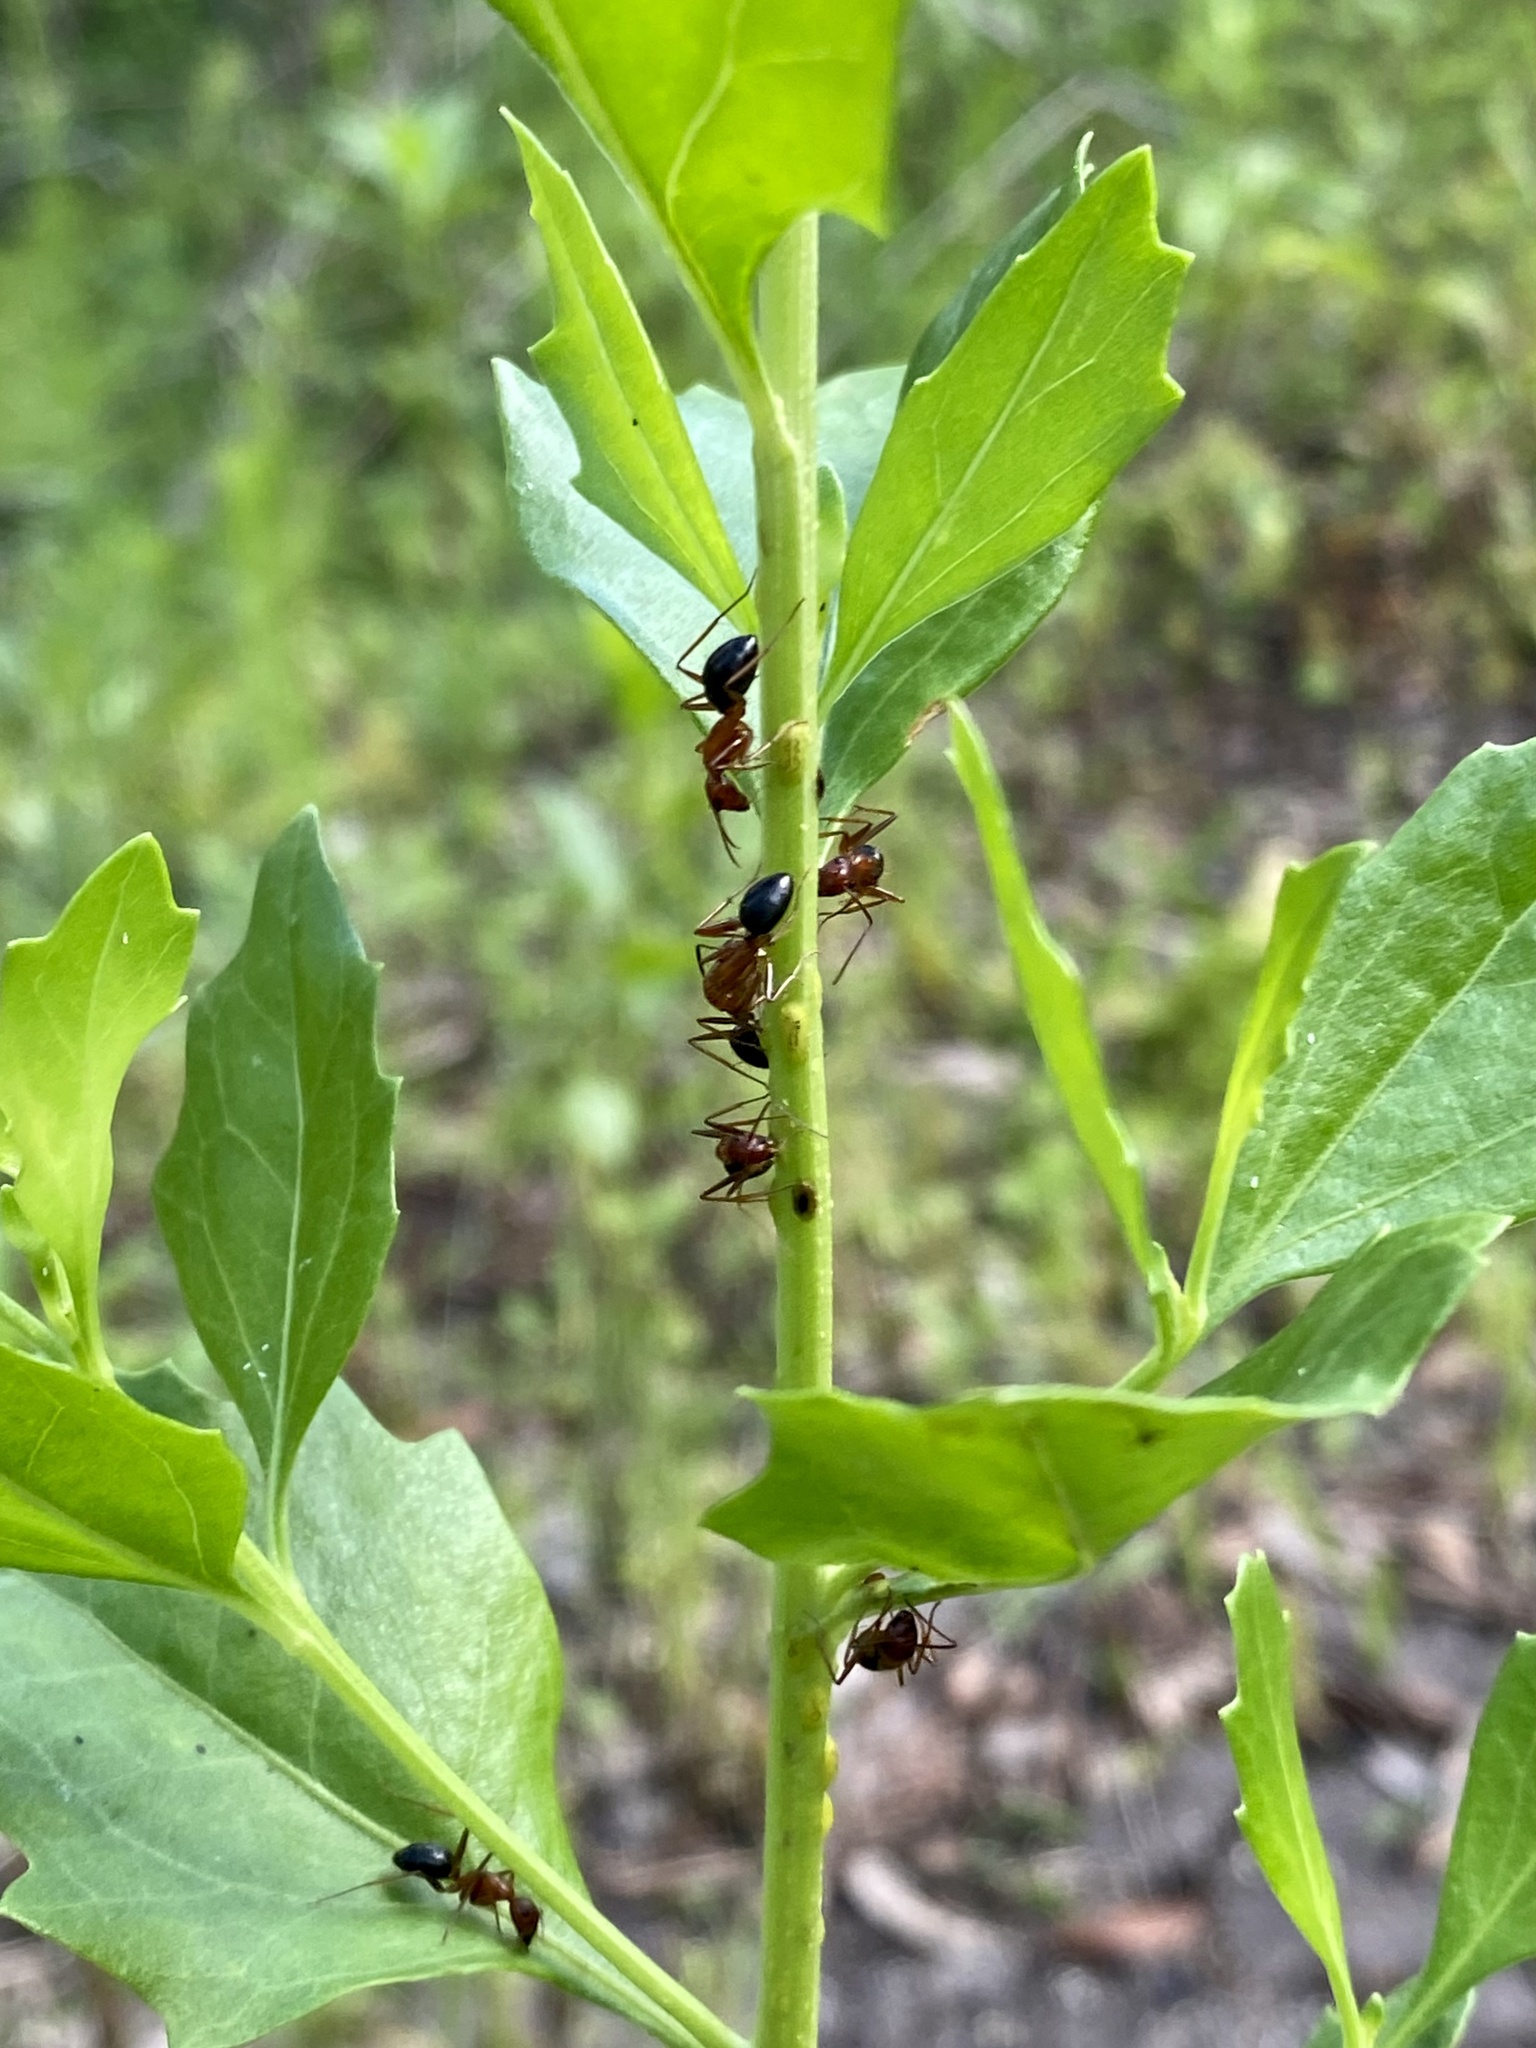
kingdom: Animalia
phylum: Arthropoda
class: Insecta
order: Hymenoptera
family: Formicidae
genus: Camponotus
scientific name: Camponotus floridanus
